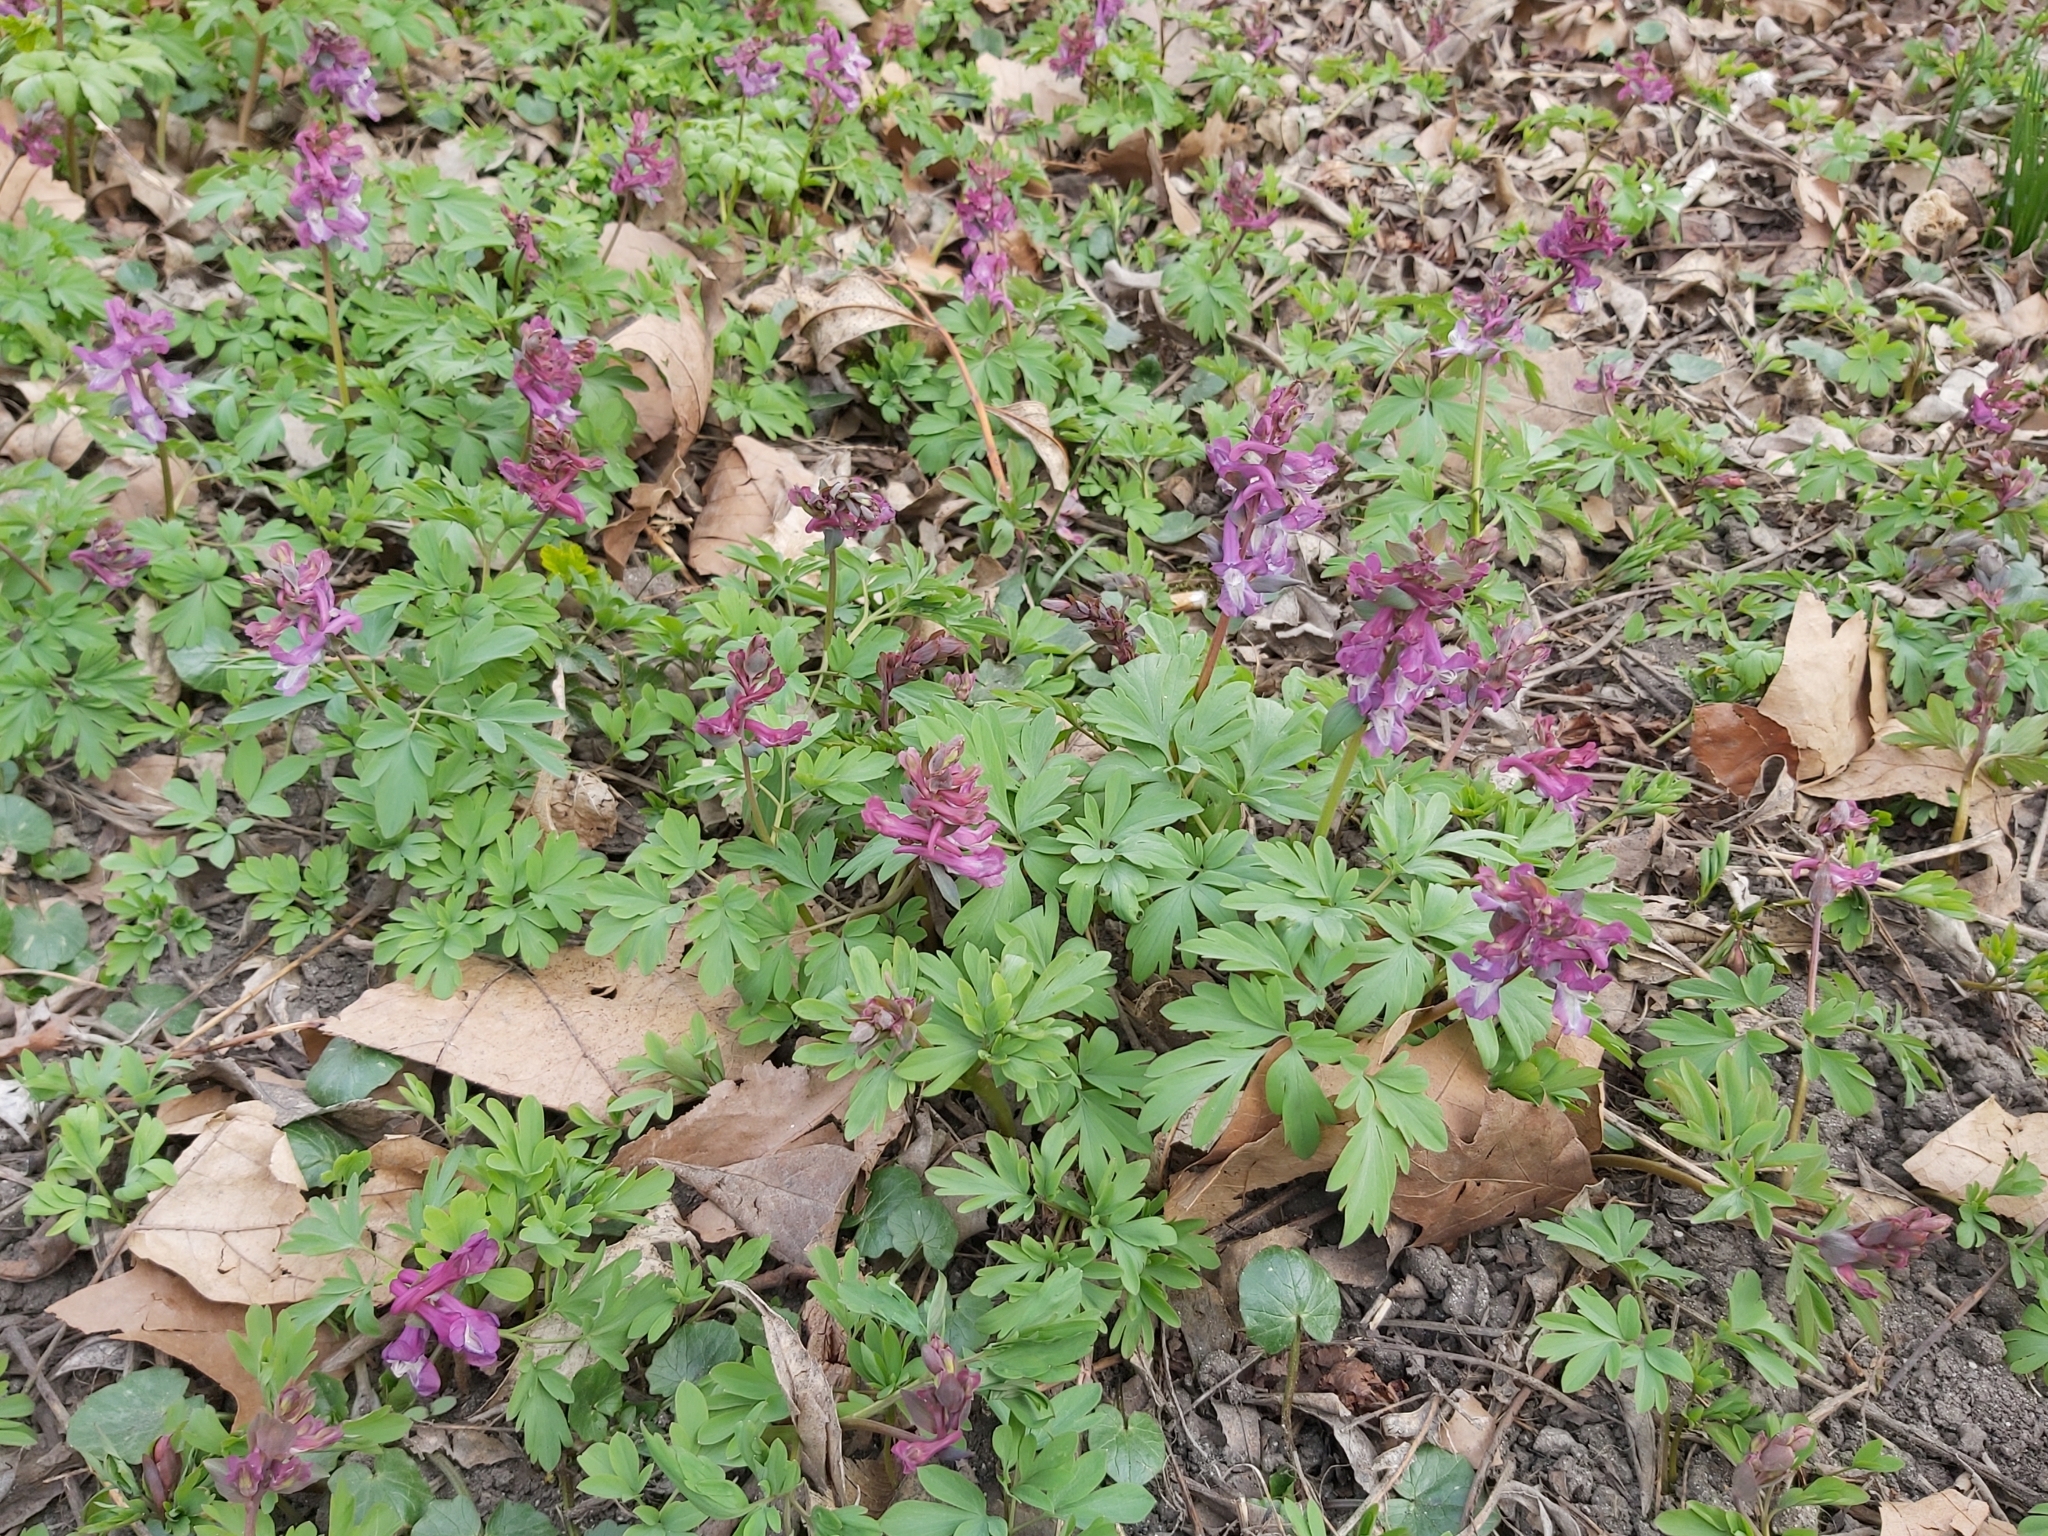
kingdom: Plantae
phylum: Tracheophyta
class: Magnoliopsida
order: Ranunculales
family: Papaveraceae
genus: Corydalis
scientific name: Corydalis cava
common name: Hollowroot
